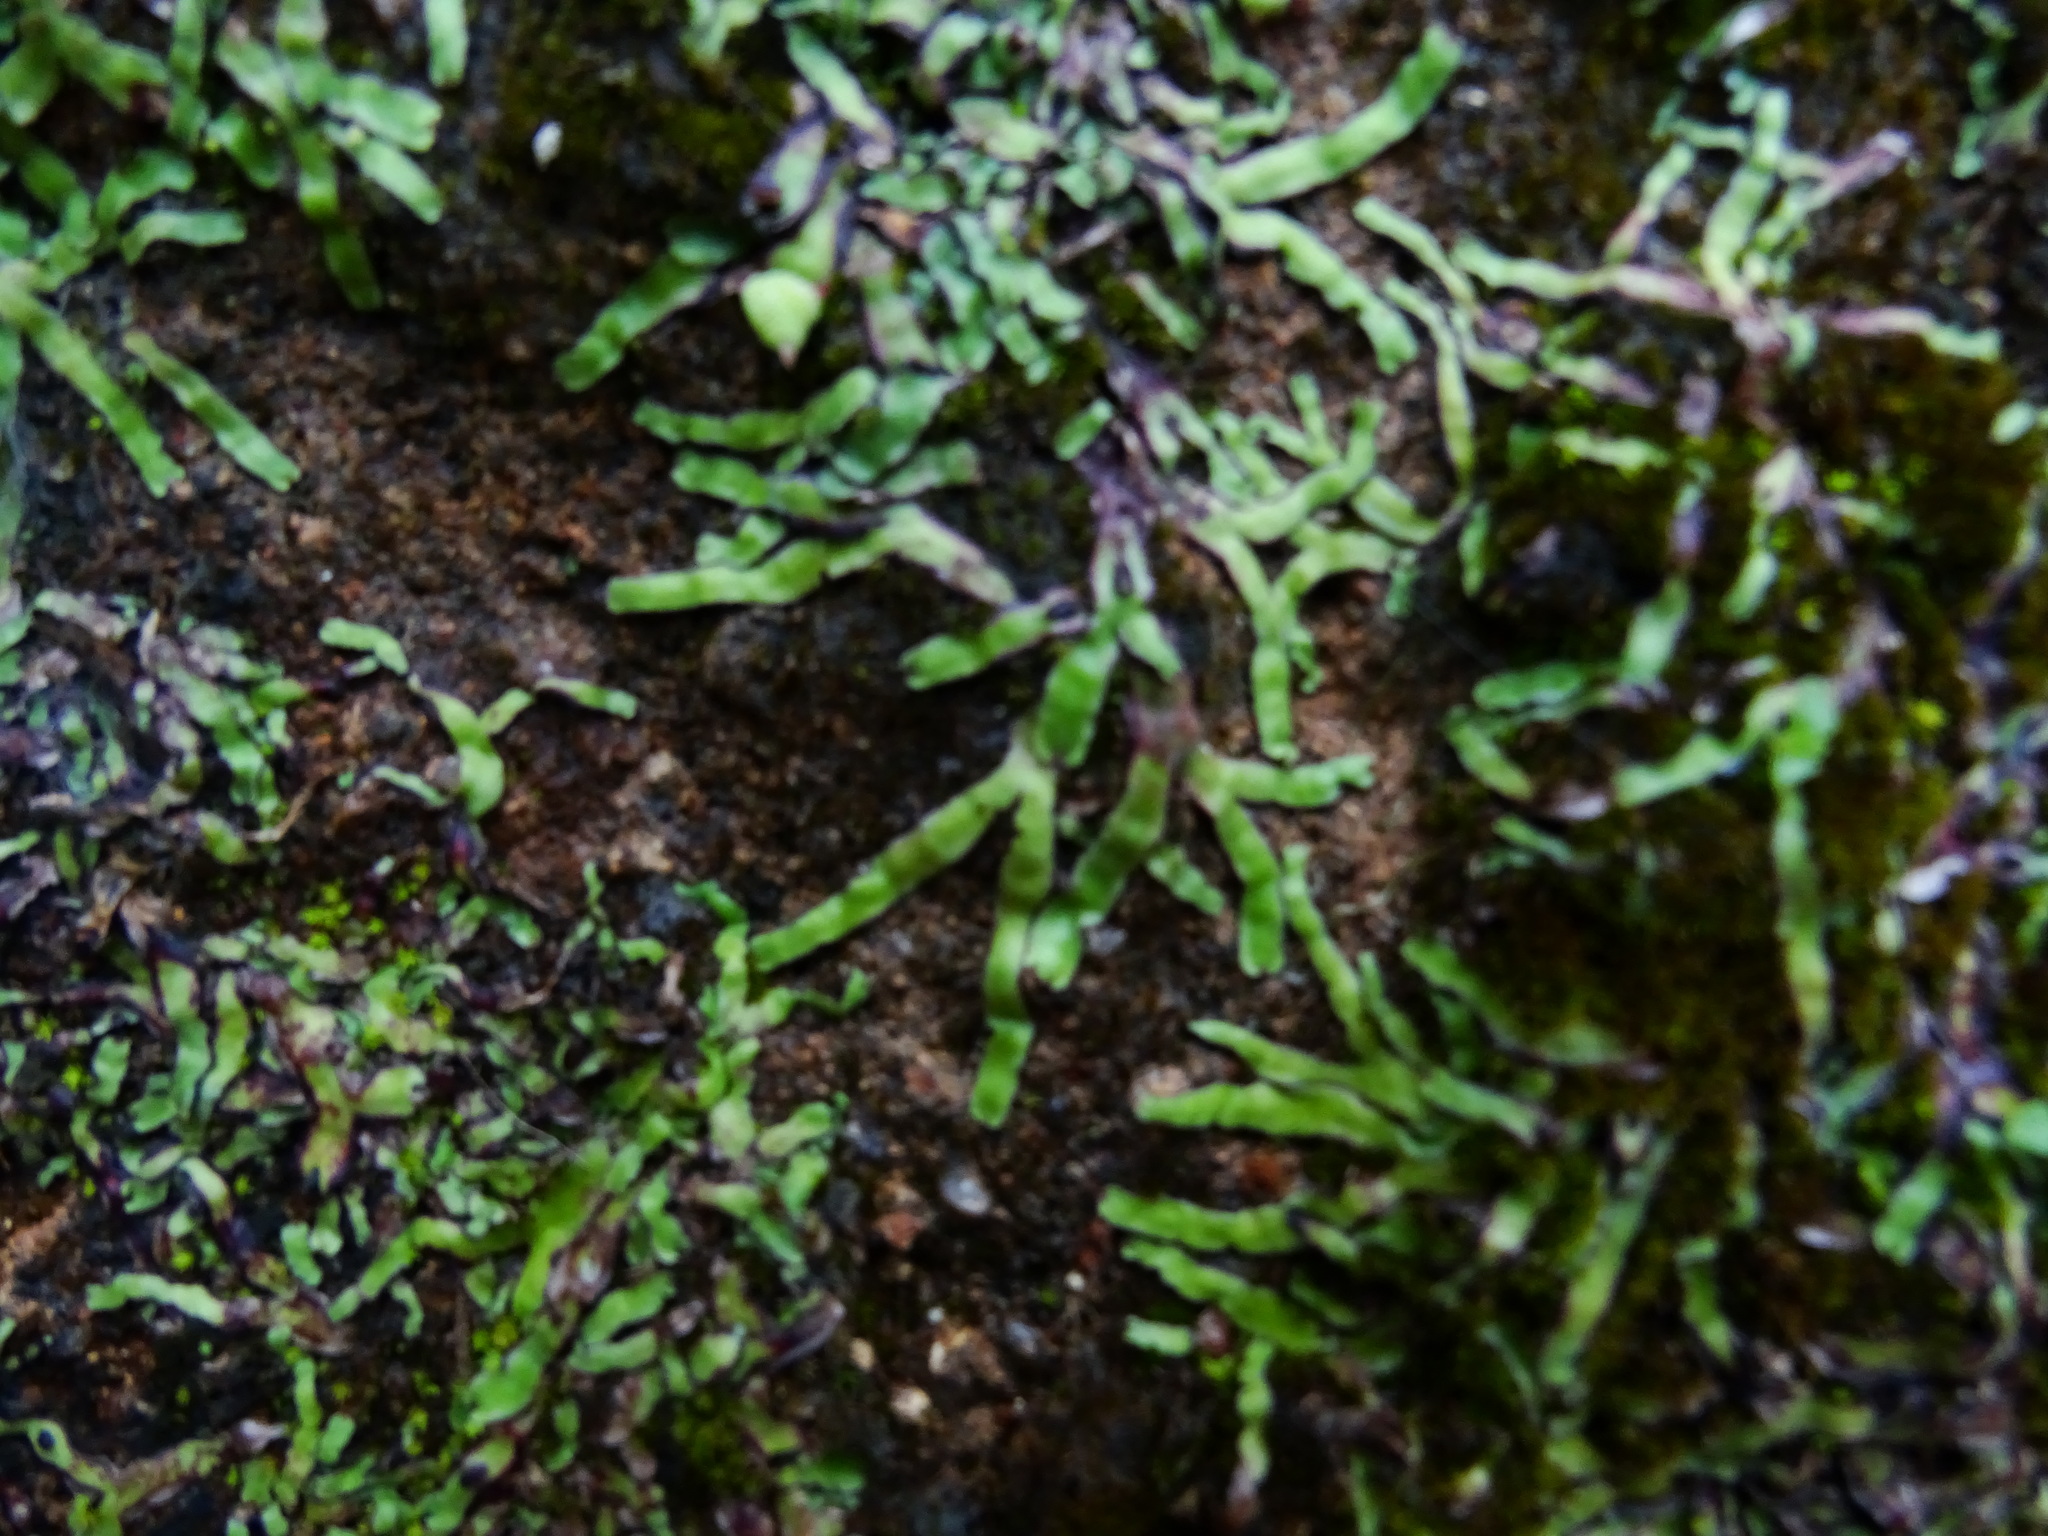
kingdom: Plantae
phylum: Marchantiophyta
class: Marchantiopsida
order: Marchantiales
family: Aytoniaceae
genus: Asterella
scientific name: Asterella wallichiana
